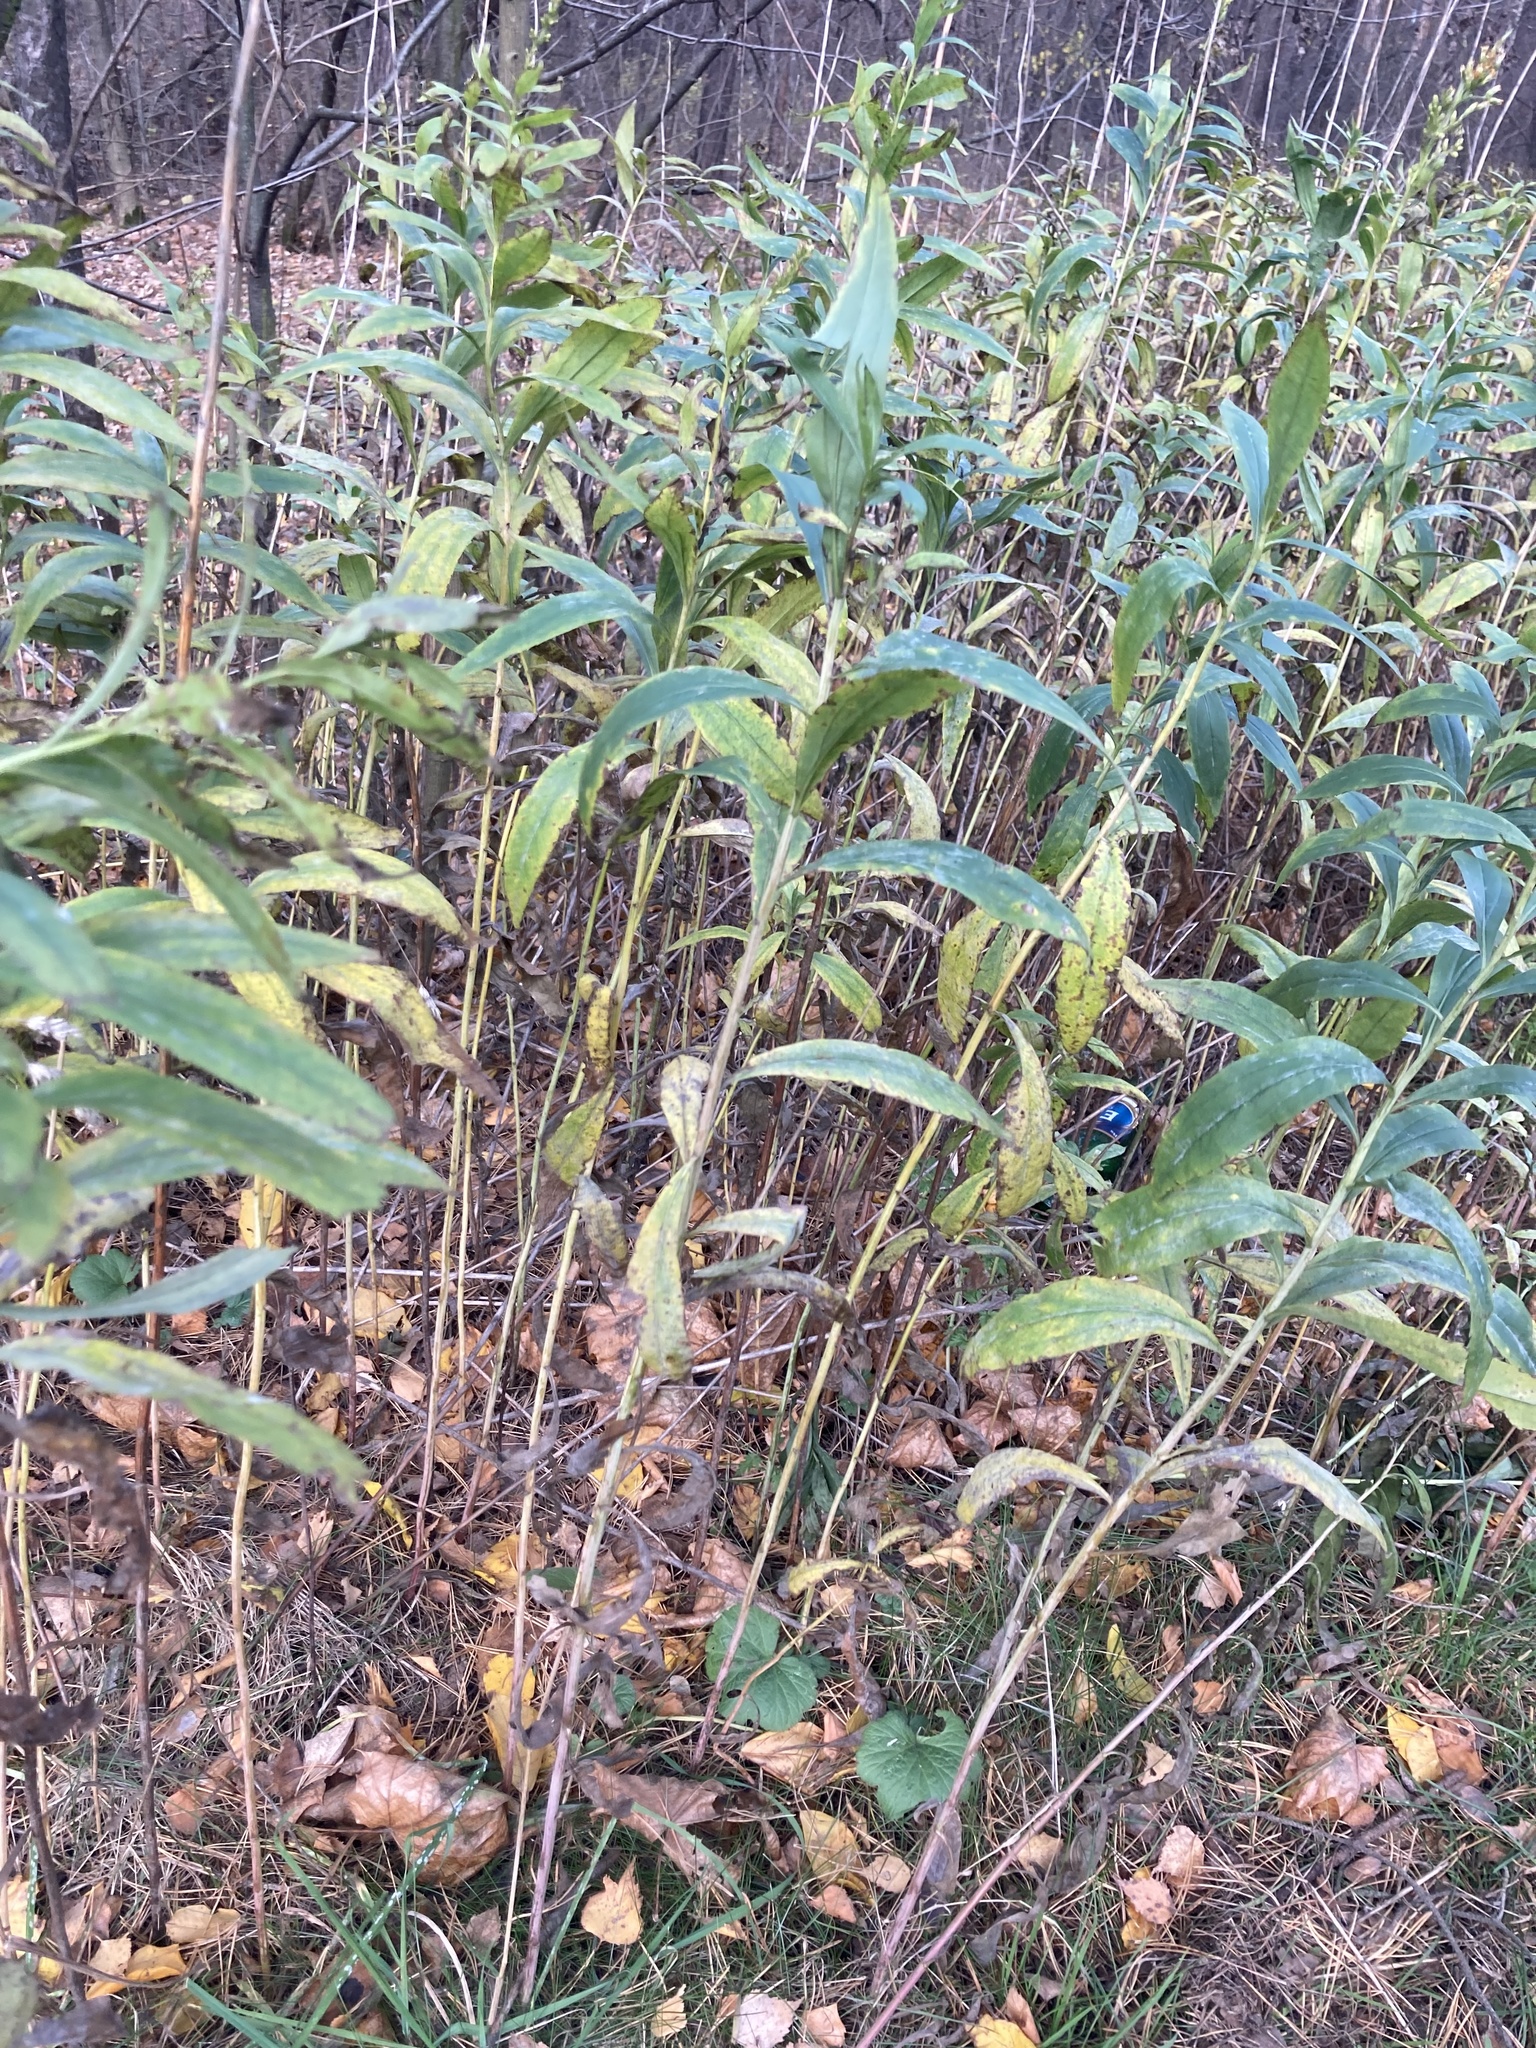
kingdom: Plantae
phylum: Tracheophyta
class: Magnoliopsida
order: Asterales
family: Asteraceae
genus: Solidago
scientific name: Solidago gigantea
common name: Giant goldenrod
